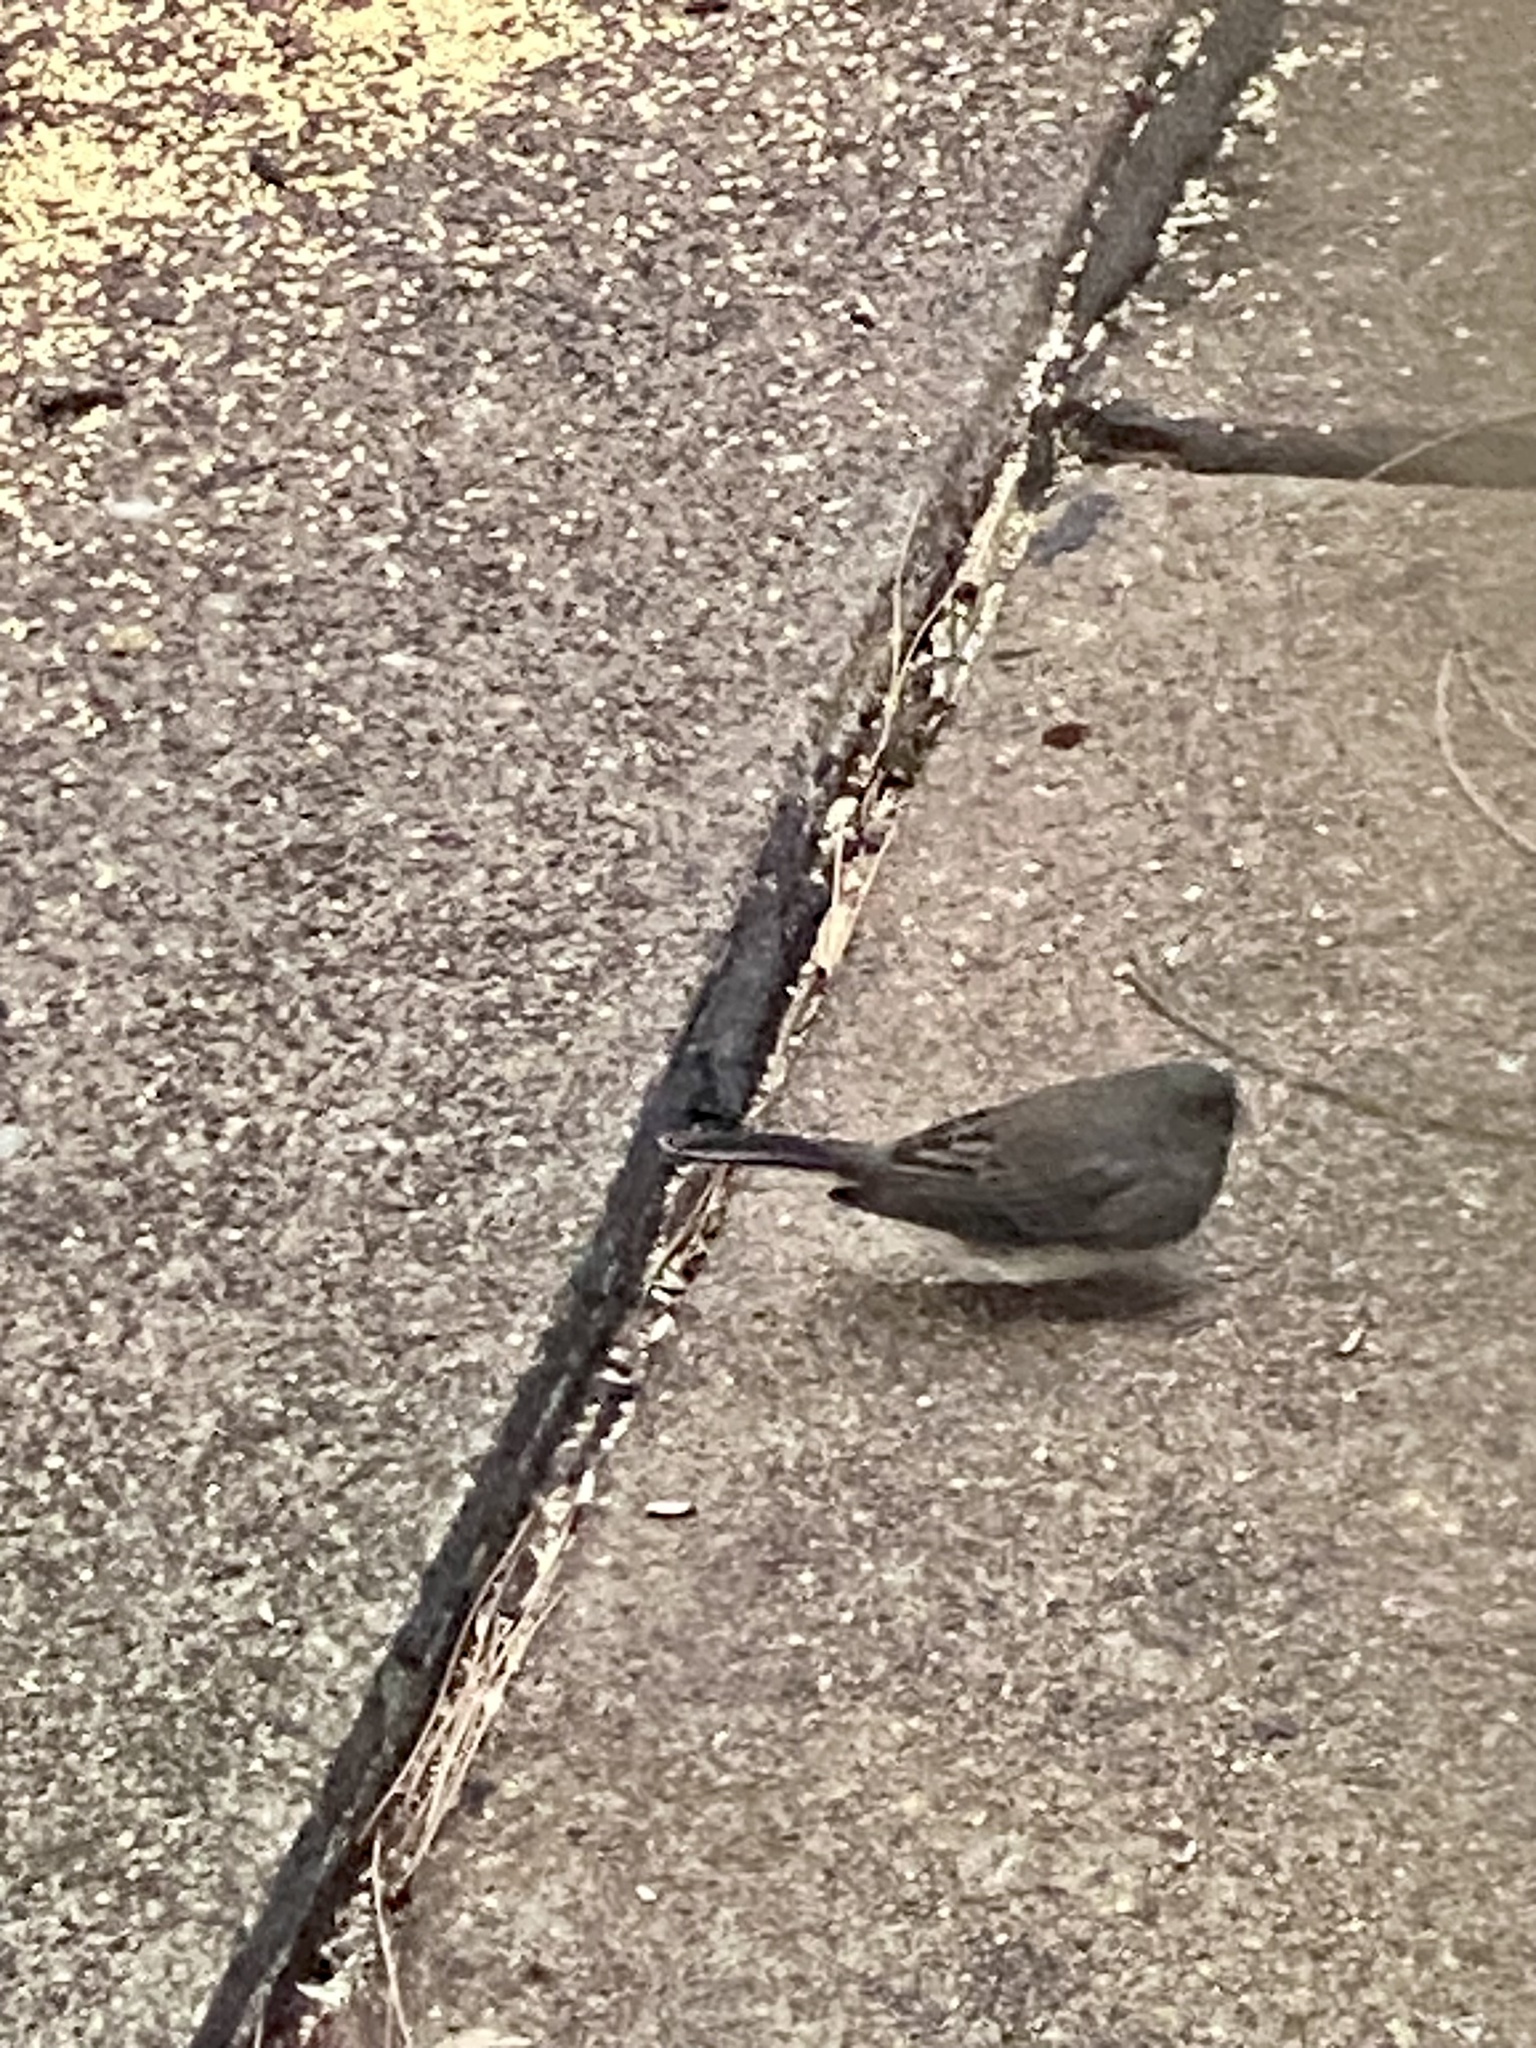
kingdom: Animalia
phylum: Chordata
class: Aves
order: Passeriformes
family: Passerellidae
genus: Junco
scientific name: Junco hyemalis
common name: Dark-eyed junco
